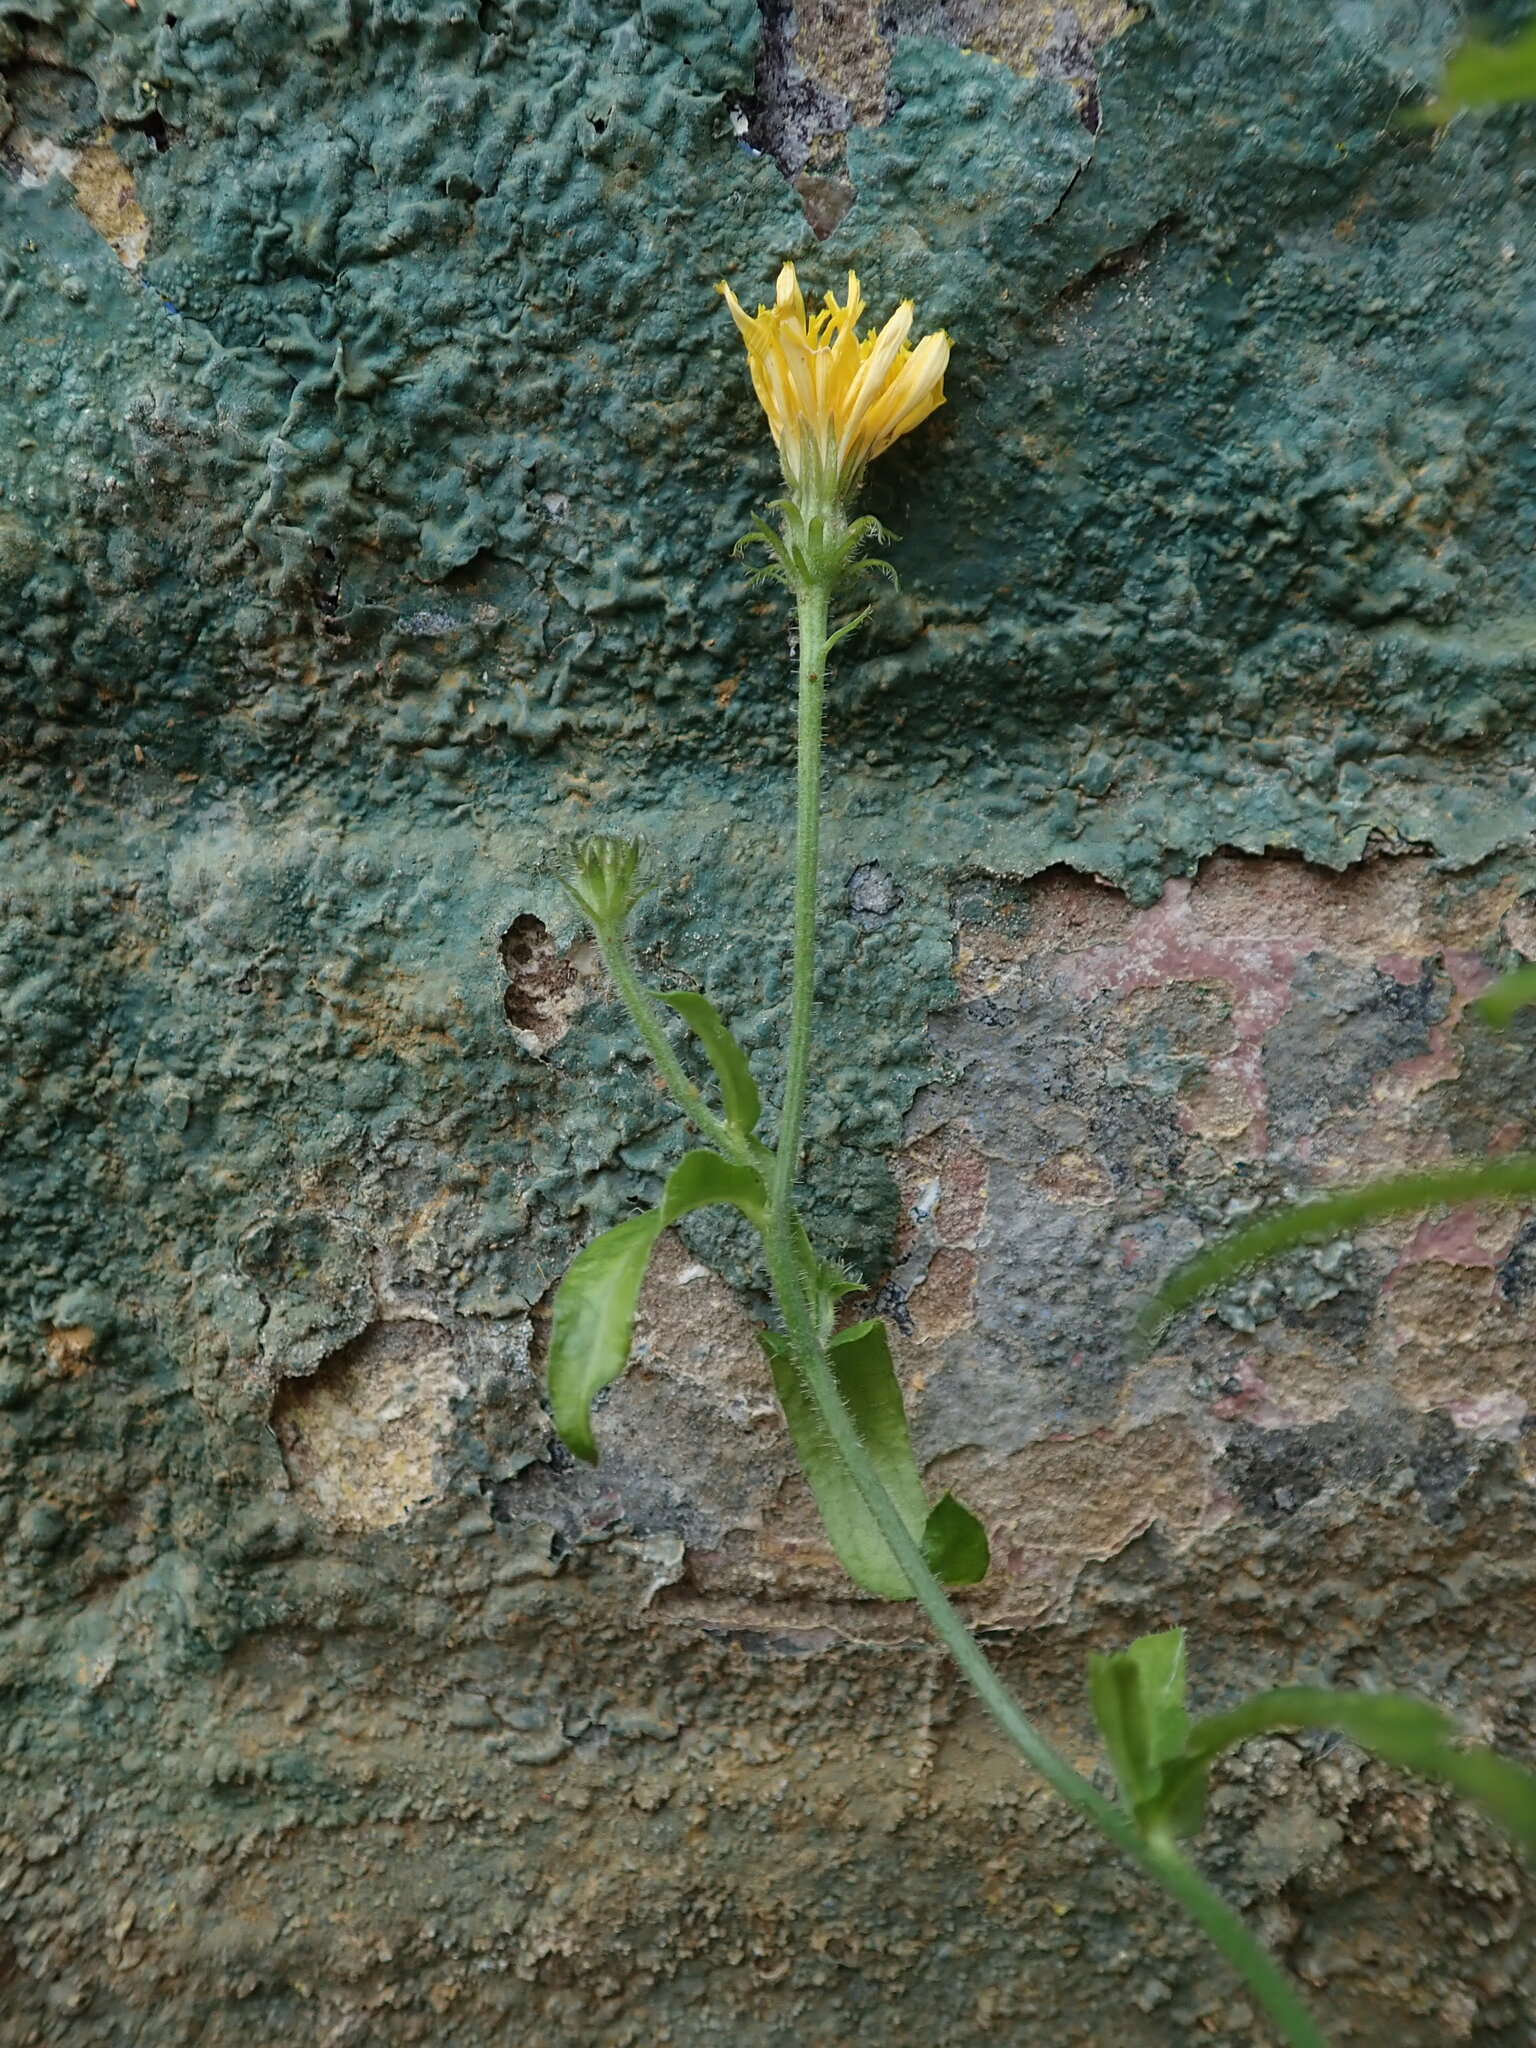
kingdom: Plantae
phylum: Tracheophyta
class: Magnoliopsida
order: Asterales
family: Asteraceae
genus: Picris
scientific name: Picris hieracioides
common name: Hawkweed oxtongue
